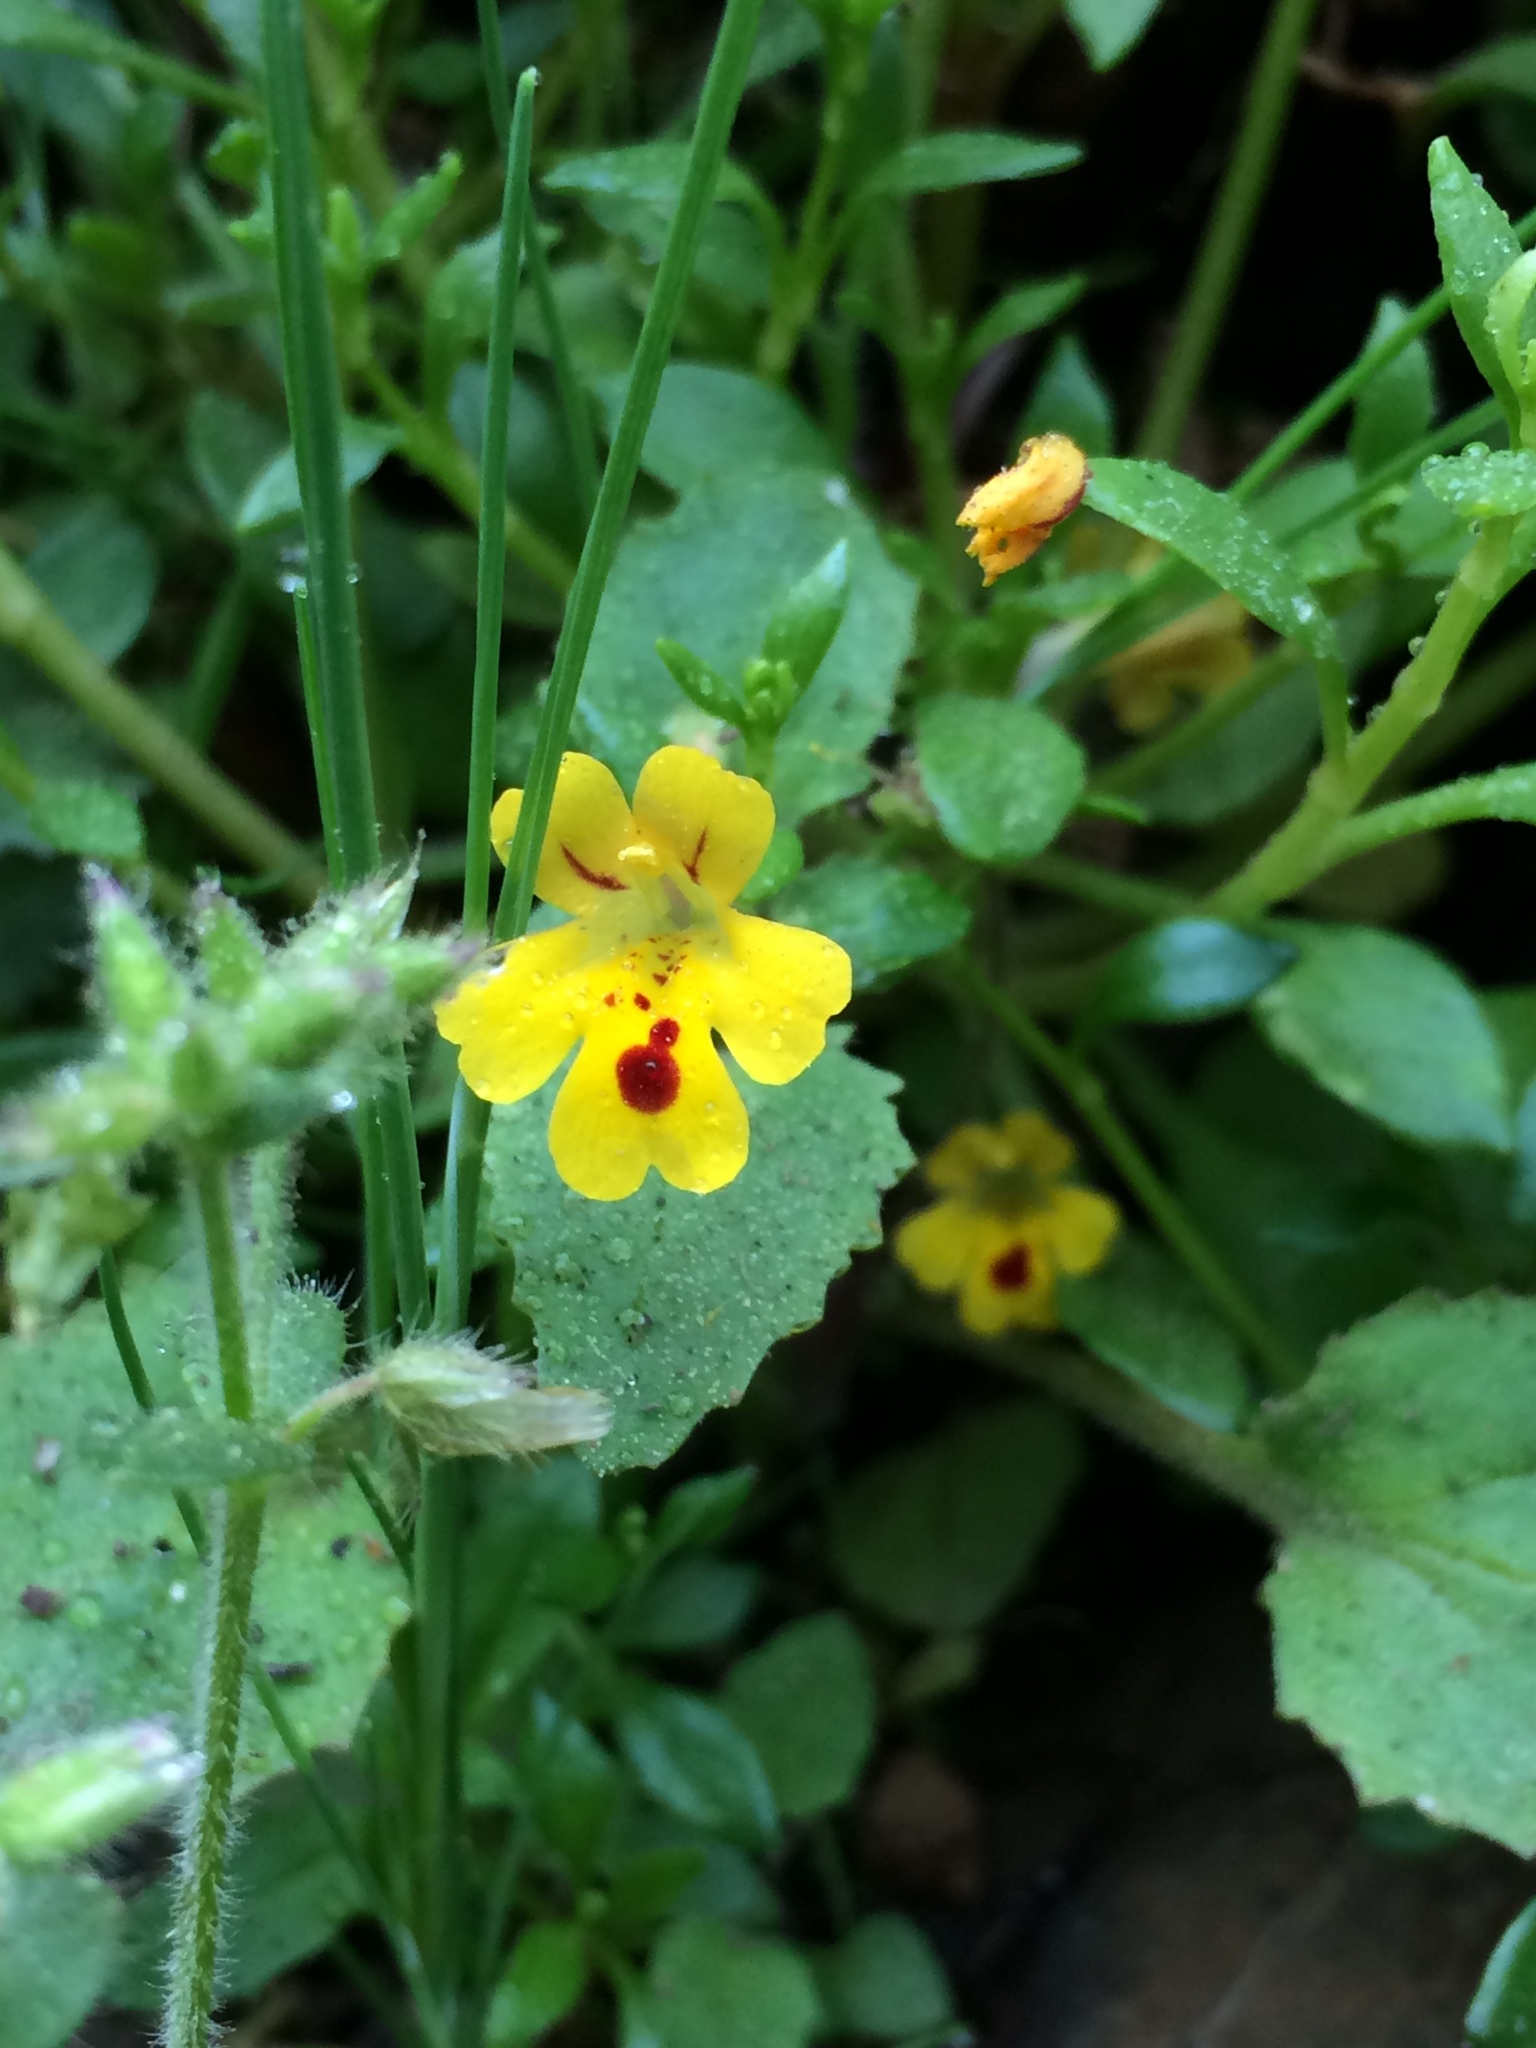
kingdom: Plantae
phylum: Tracheophyta
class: Magnoliopsida
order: Lamiales
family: Phrymaceae
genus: Erythranthe
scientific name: Erythranthe alsinoides
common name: Chickweed monkeyflower
